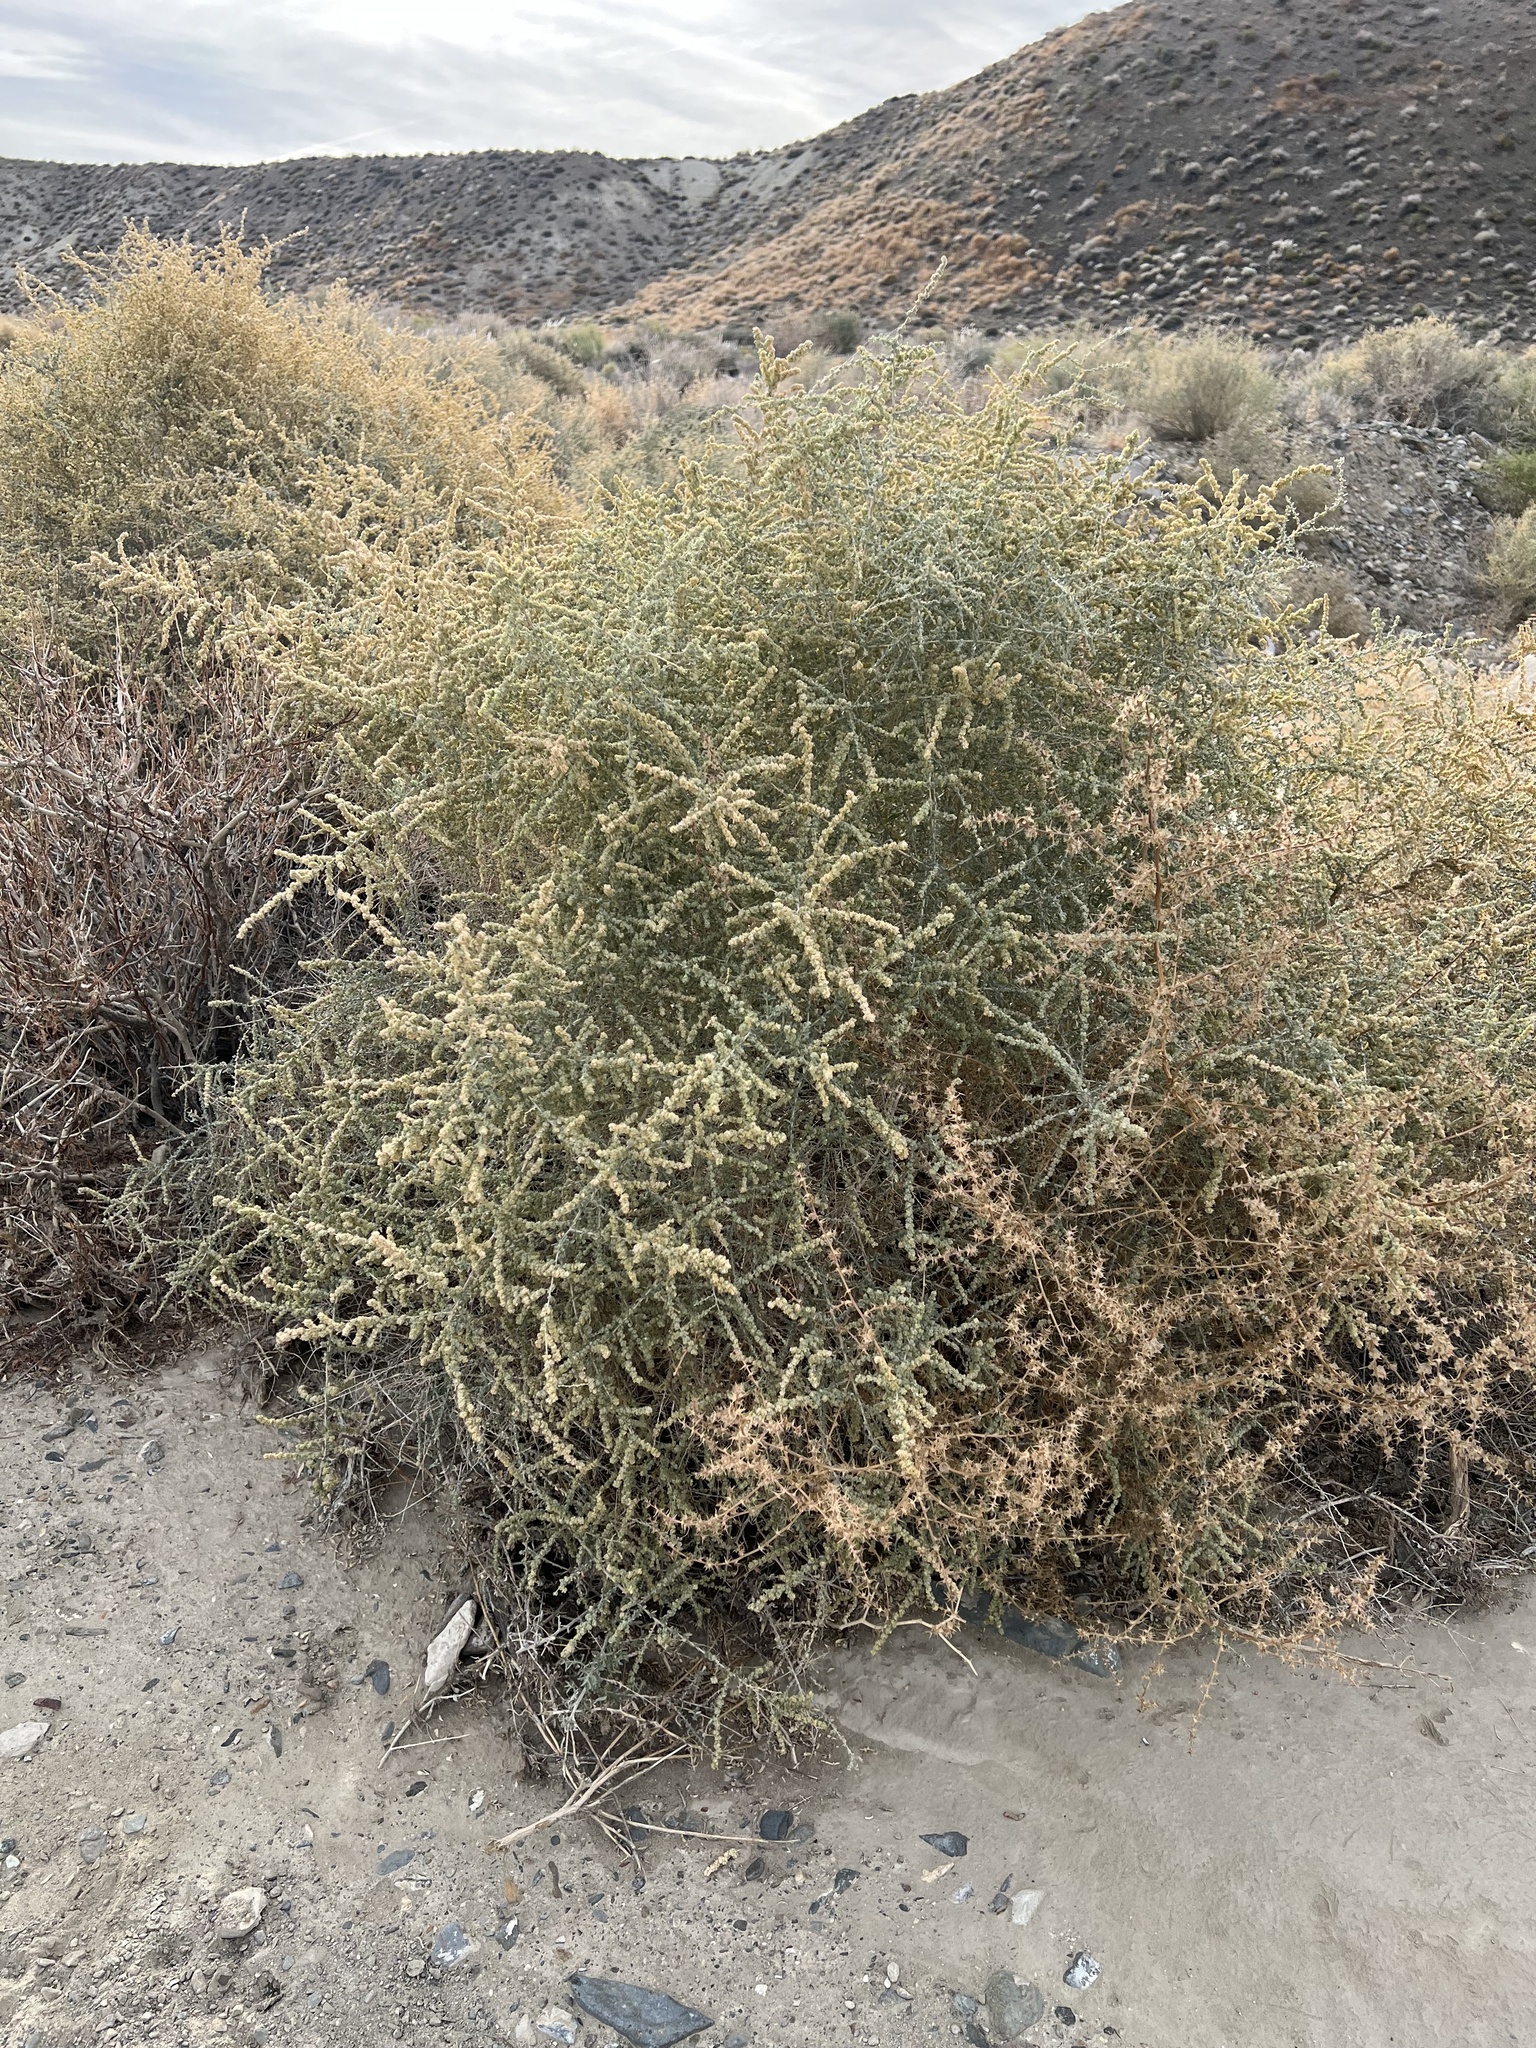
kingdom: Plantae
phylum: Tracheophyta
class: Magnoliopsida
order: Caryophyllales
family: Amaranthaceae
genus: Atriplex
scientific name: Atriplex polycarpa
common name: Desert saltbush
